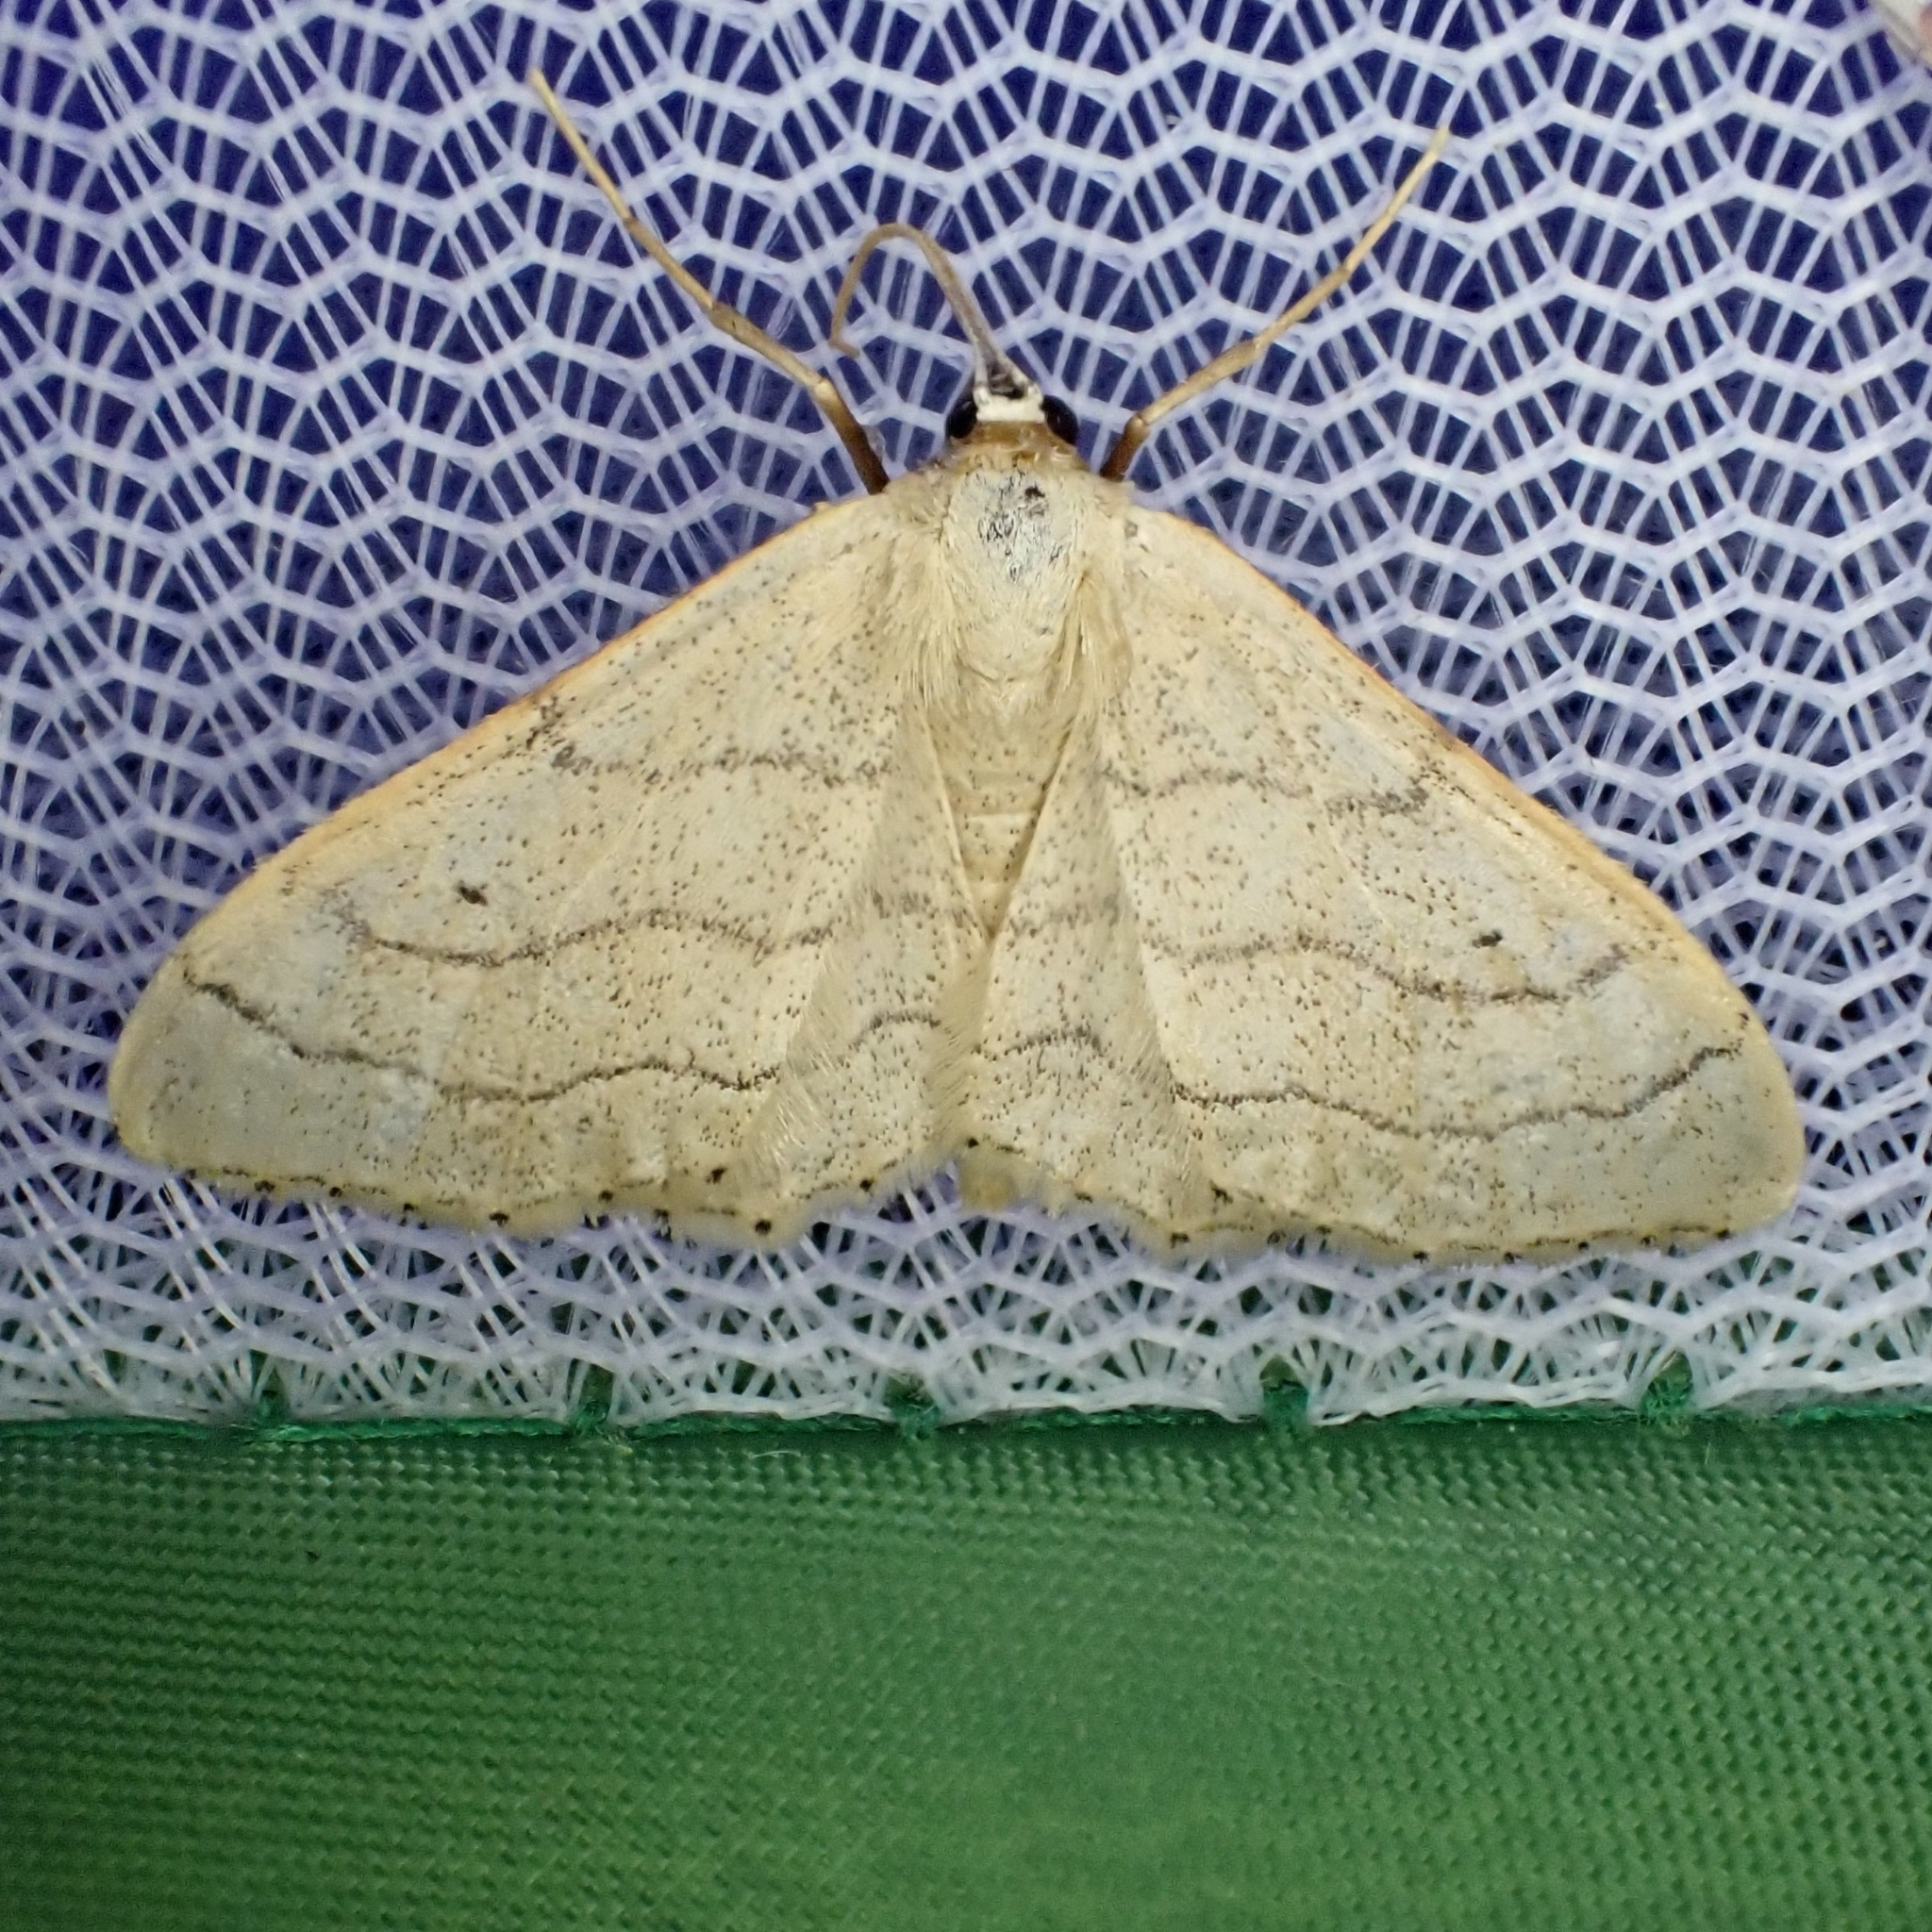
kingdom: Animalia
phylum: Arthropoda
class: Insecta
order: Lepidoptera
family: Geometridae
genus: Idaea
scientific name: Idaea aversata
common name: Riband wave
